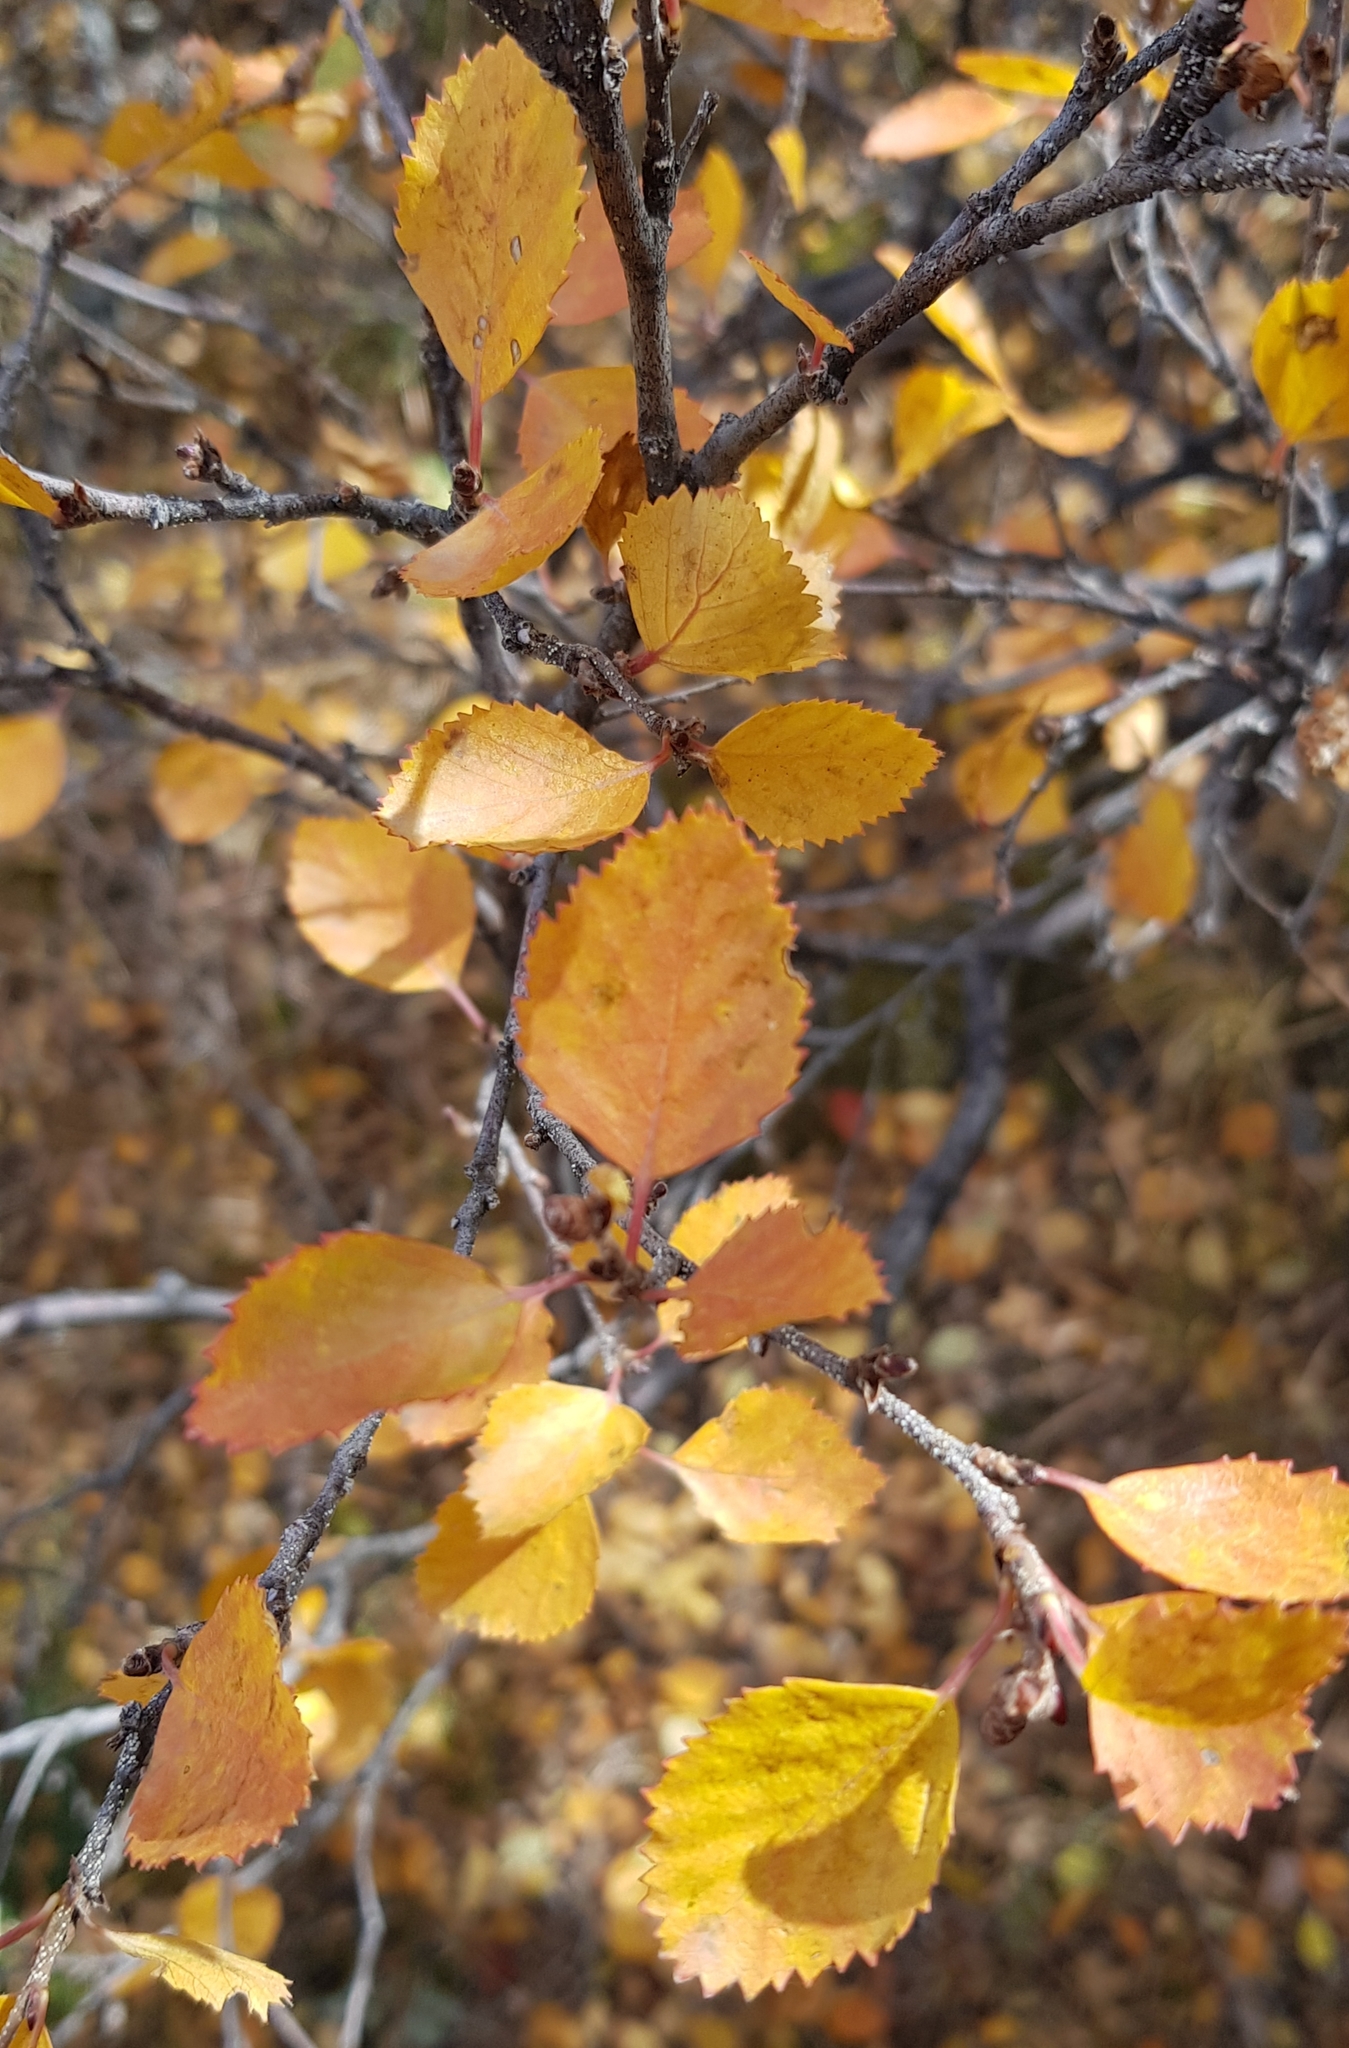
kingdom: Plantae
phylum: Tracheophyta
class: Magnoliopsida
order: Fagales
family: Betulaceae
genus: Betula
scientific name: Betula glandulosa
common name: Dwarf birch
